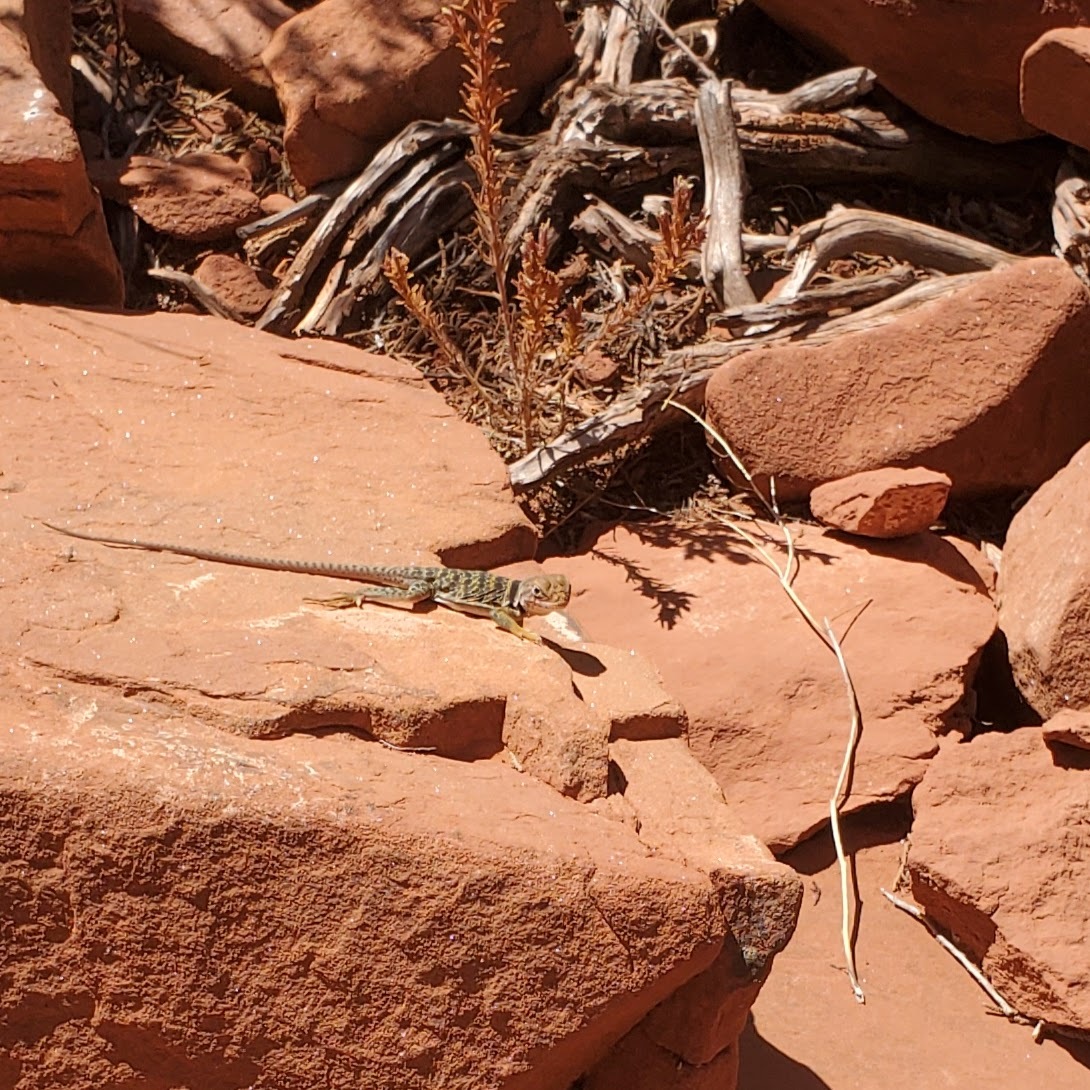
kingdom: Animalia
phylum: Chordata
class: Squamata
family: Crotaphytidae
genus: Crotaphytus
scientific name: Crotaphytus collaris
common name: Collared lizard
